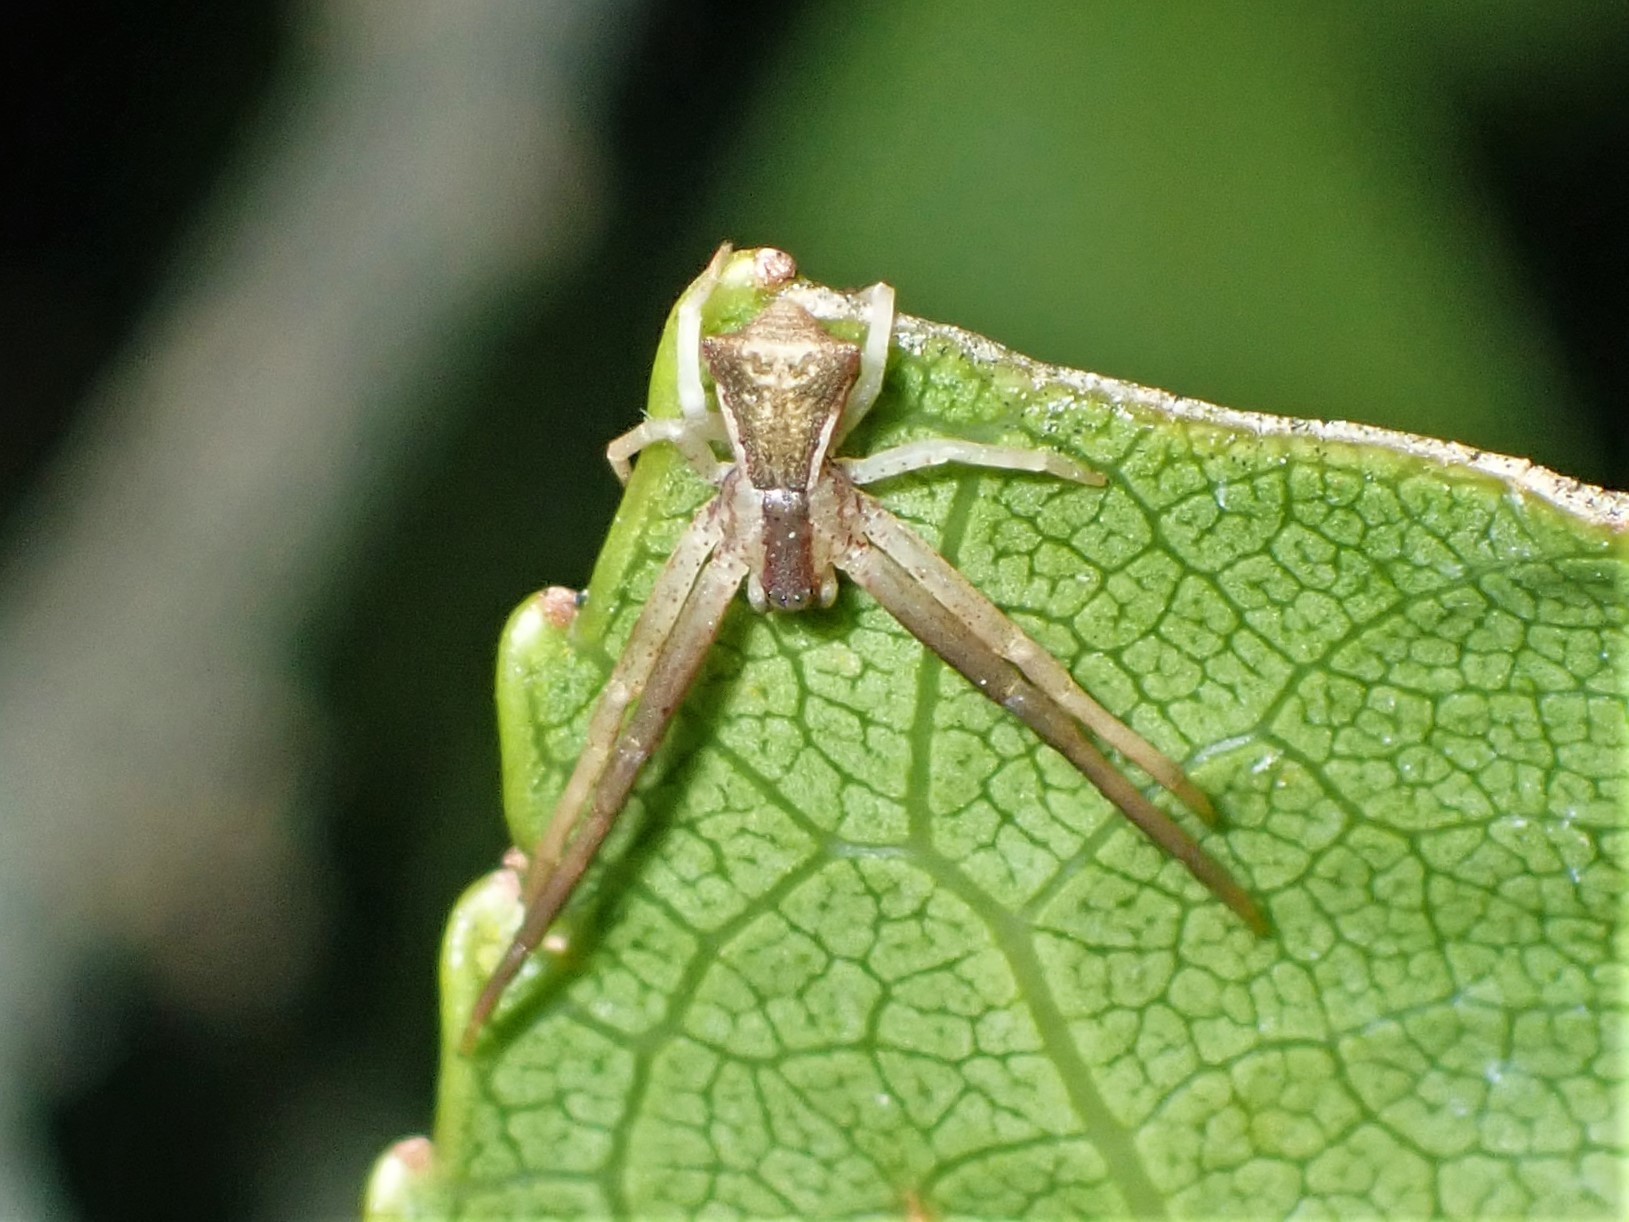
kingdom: Animalia
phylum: Arthropoda
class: Arachnida
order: Araneae
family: Thomisidae
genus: Sidymella
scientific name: Sidymella trapezia
